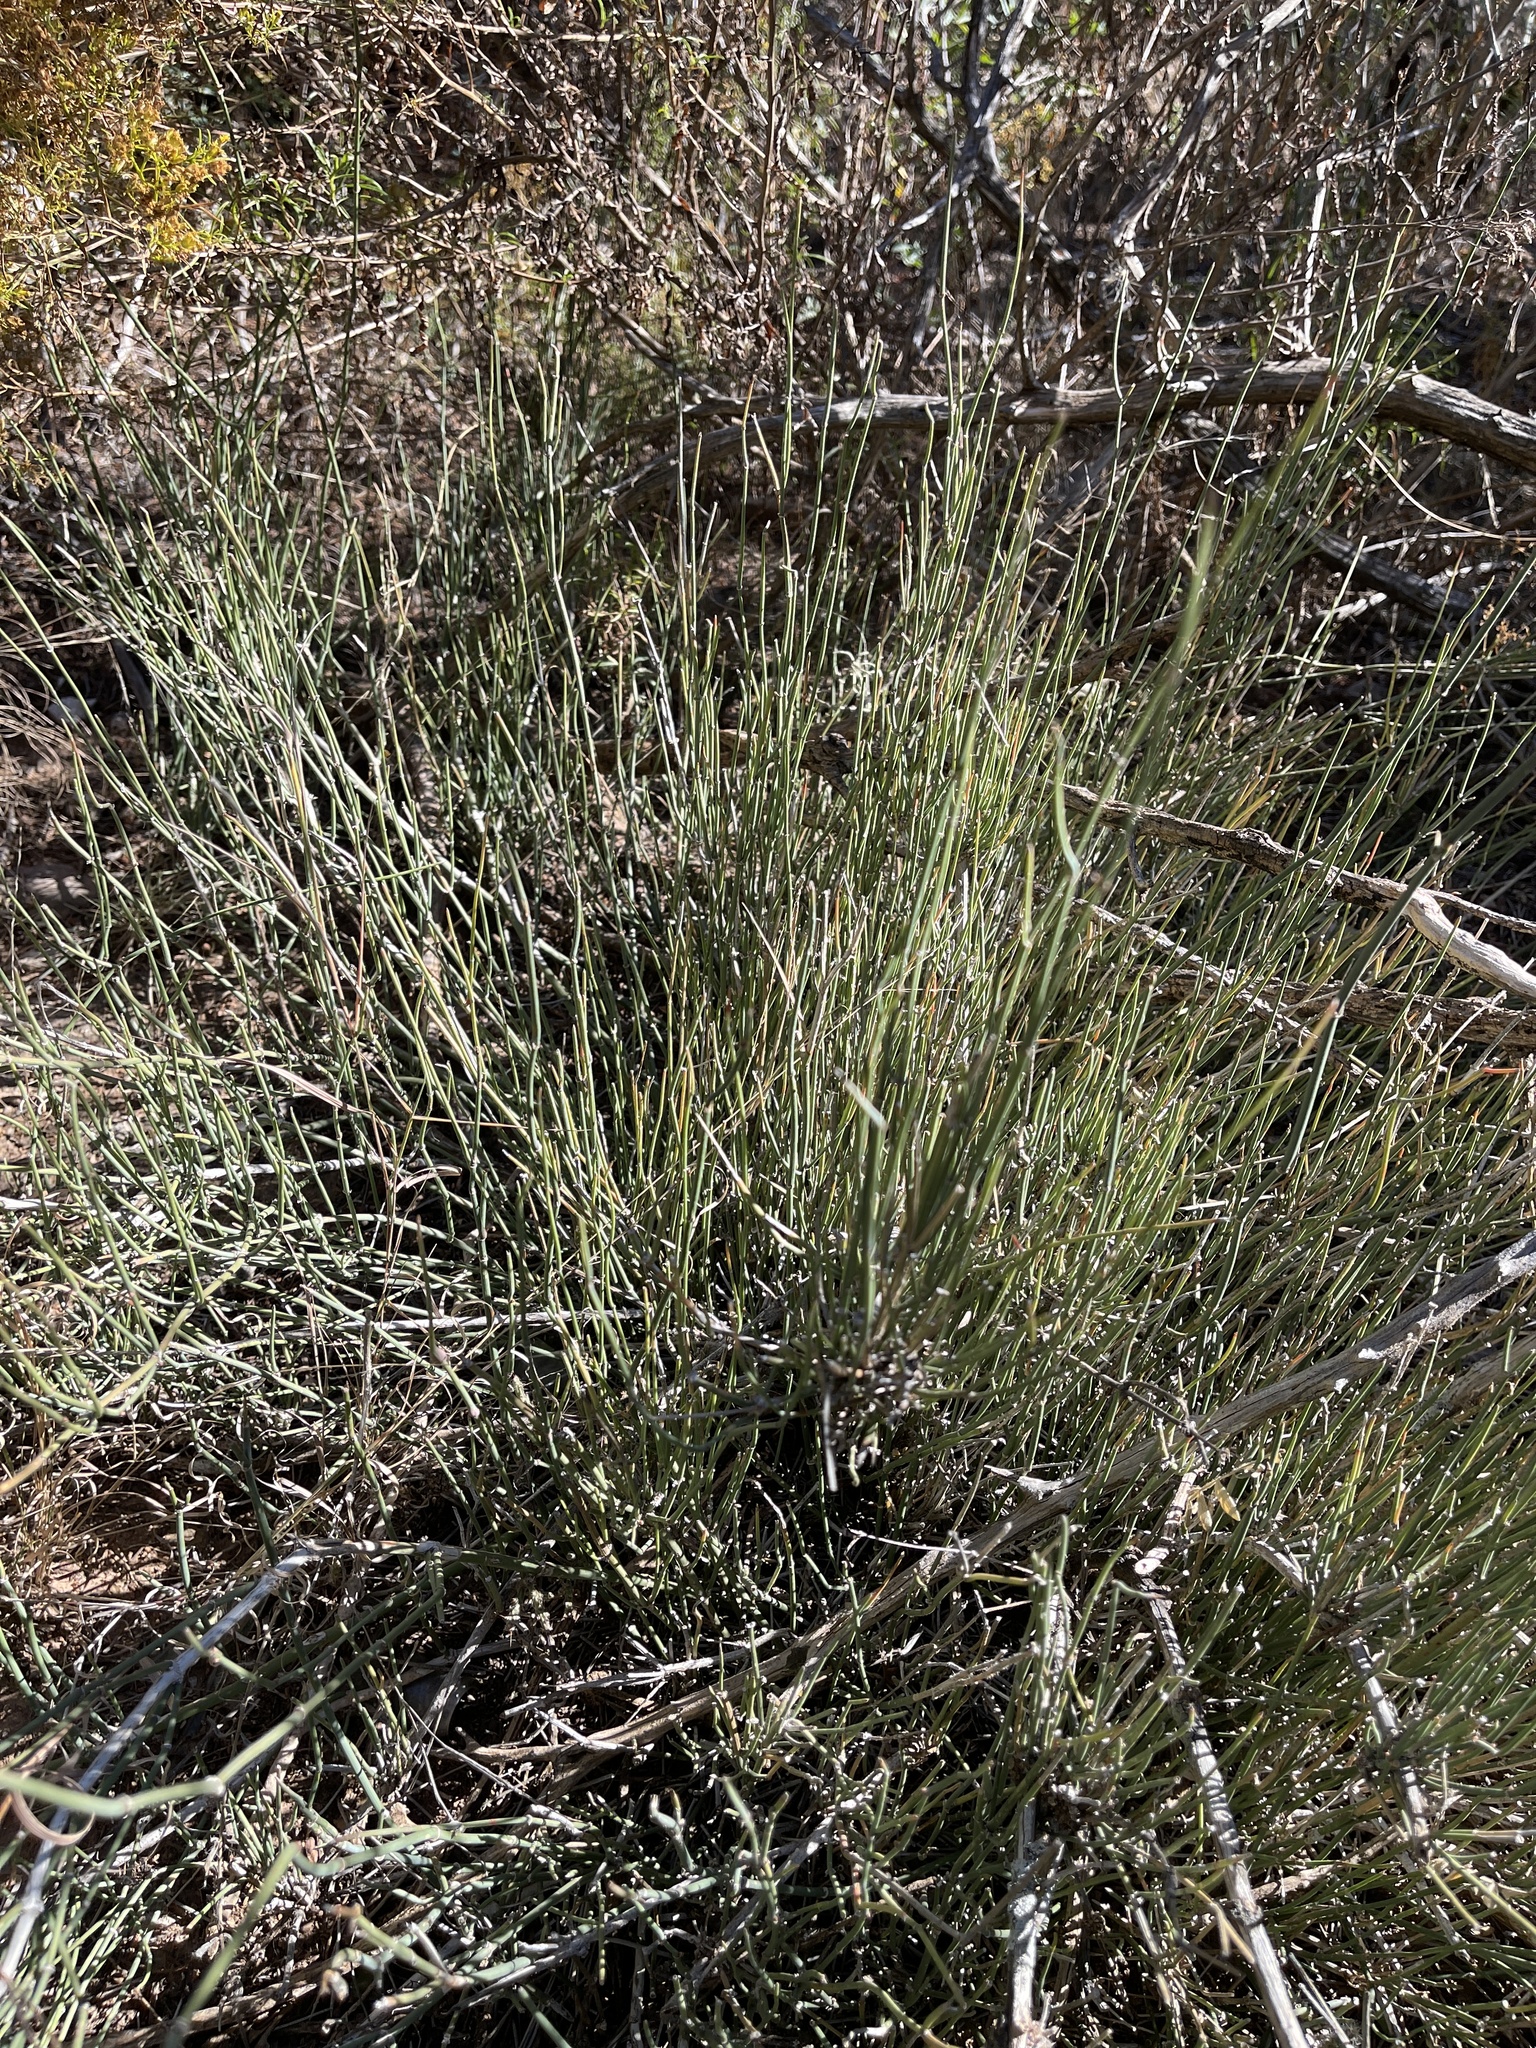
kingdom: Plantae
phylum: Tracheophyta
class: Gnetopsida
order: Ephedrales
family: Ephedraceae
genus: Ephedra
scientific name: Ephedra antisyphilitica
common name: Clipweed
